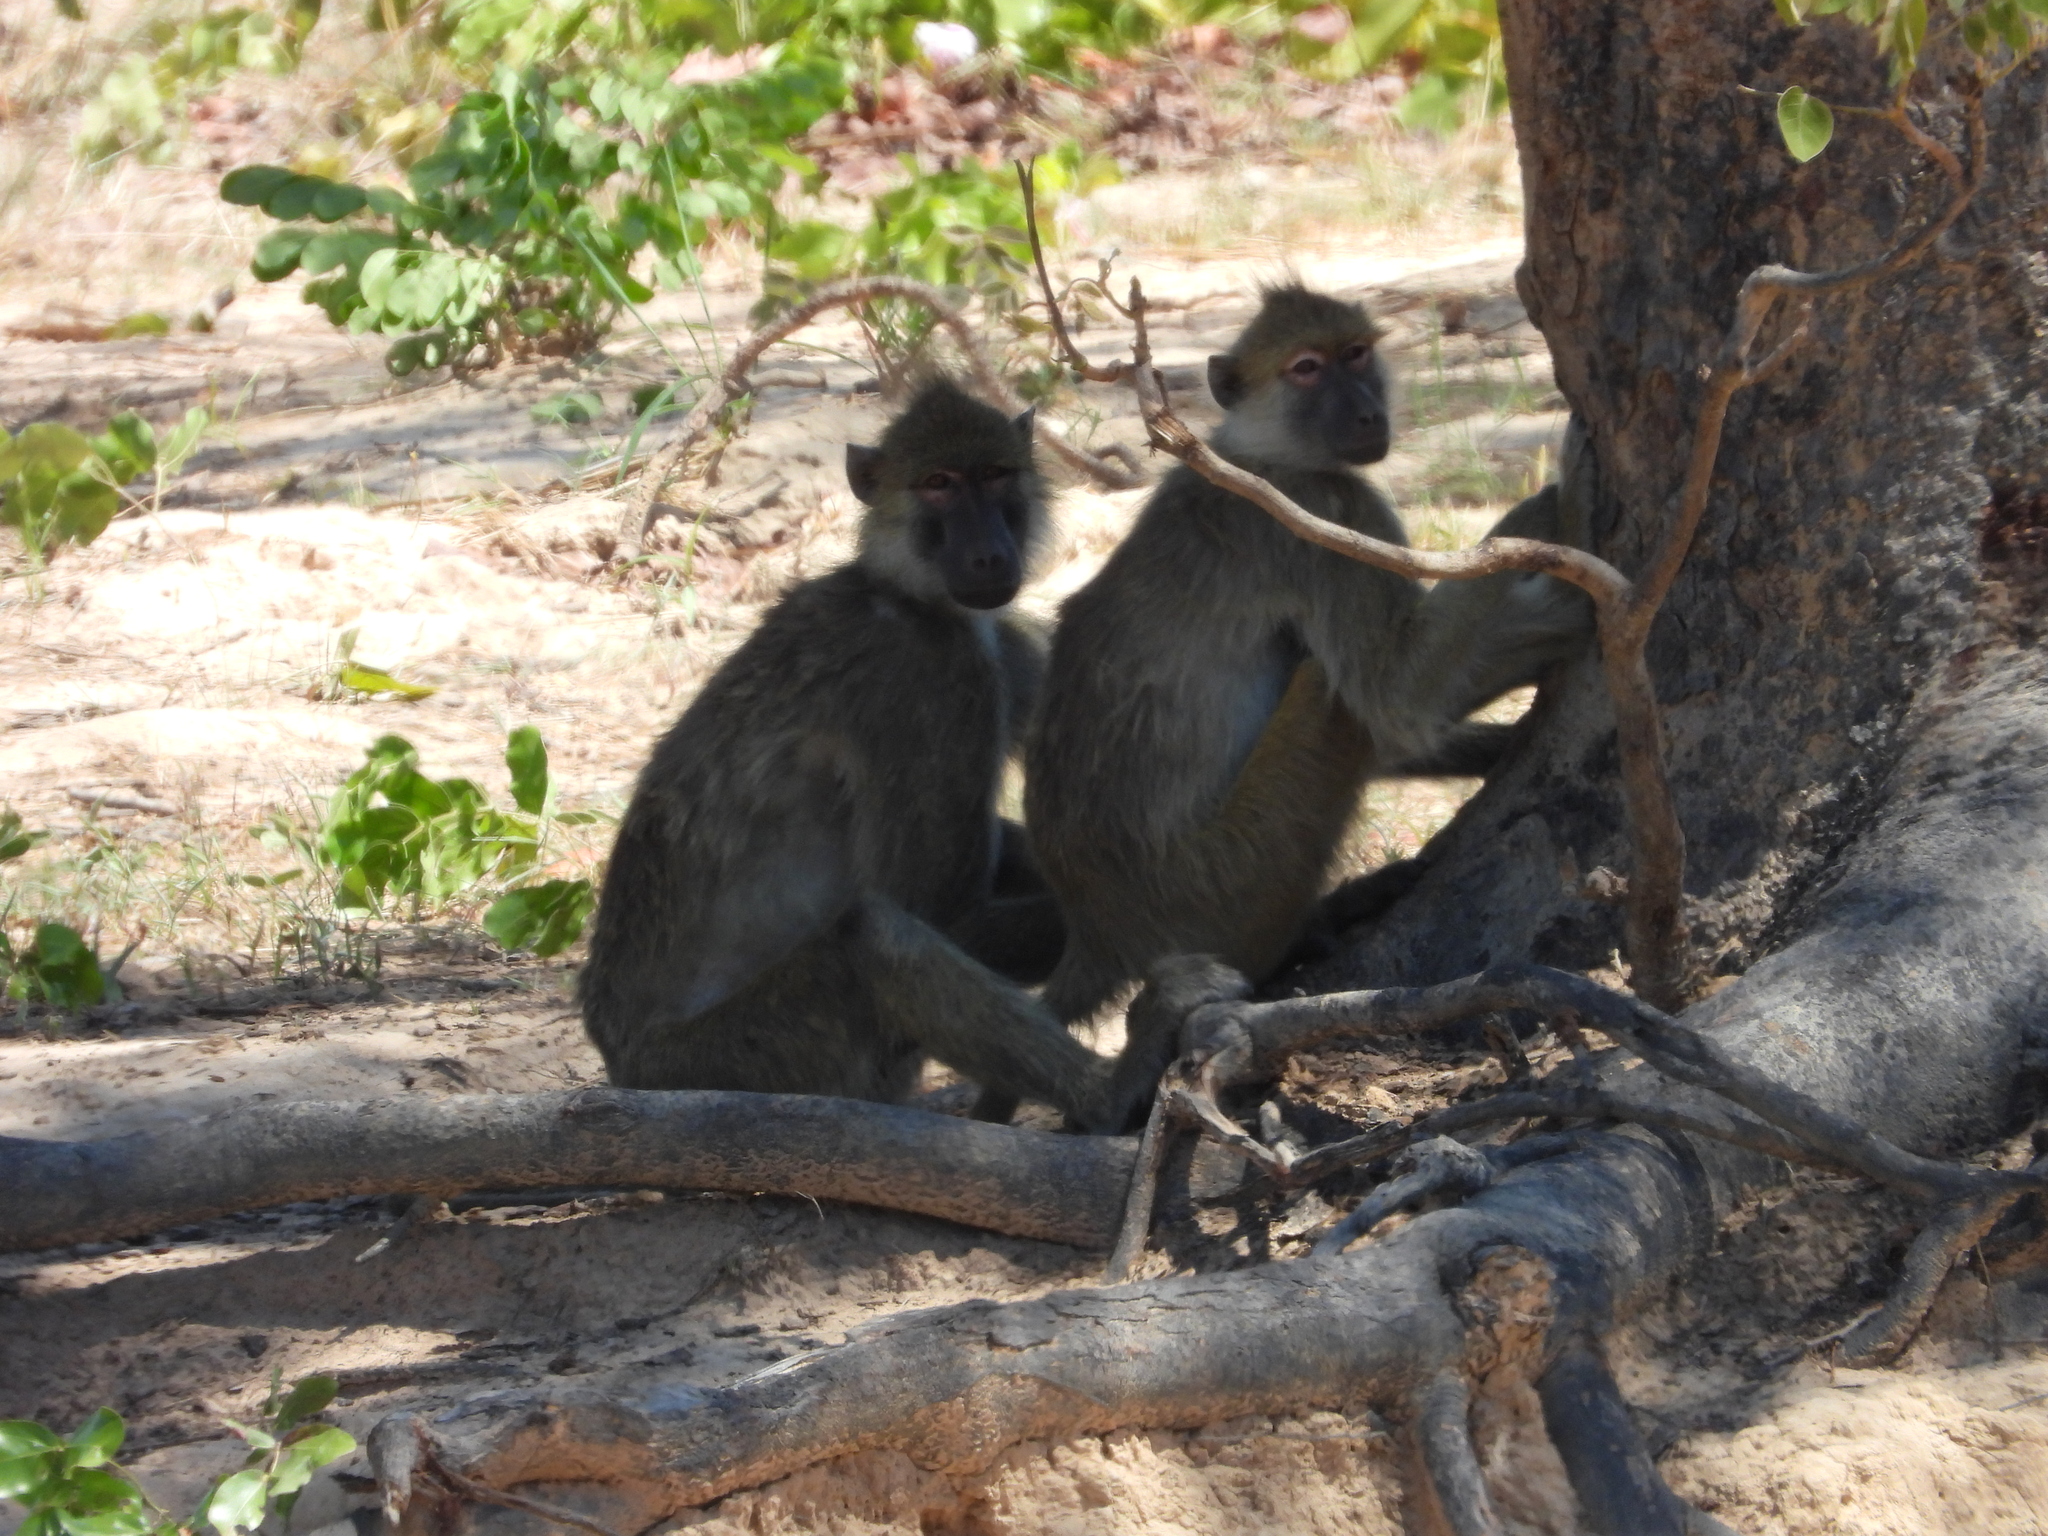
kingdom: Animalia
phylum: Chordata
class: Mammalia
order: Primates
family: Cercopithecidae
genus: Papio
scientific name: Papio kindae
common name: Kinda baboon
